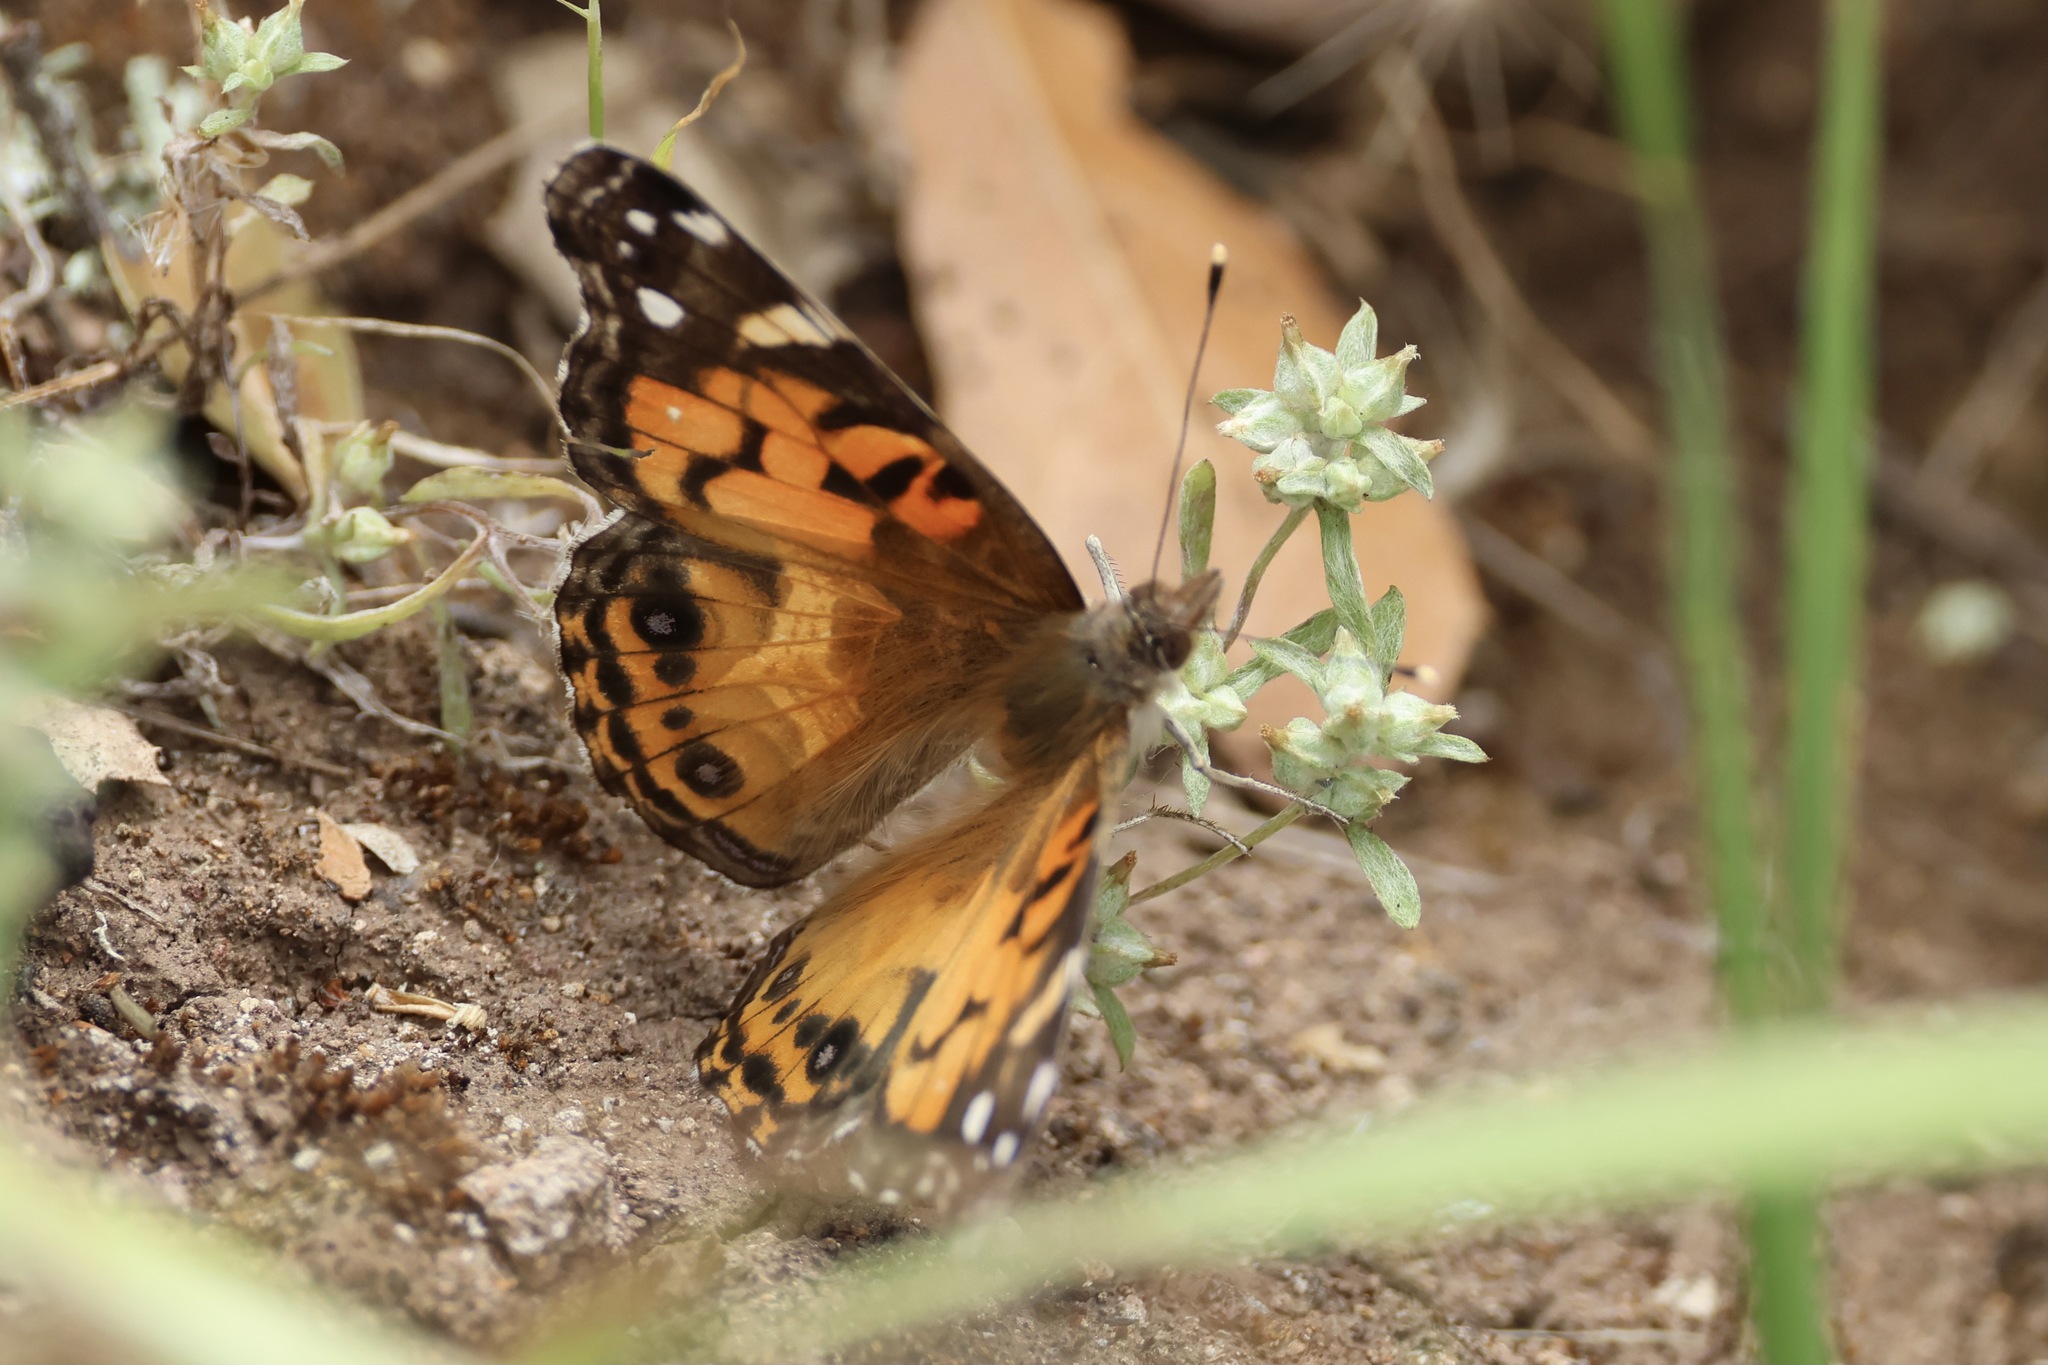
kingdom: Animalia
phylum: Arthropoda
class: Insecta
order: Lepidoptera
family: Nymphalidae
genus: Vanessa
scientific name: Vanessa virginiensis
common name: American lady
